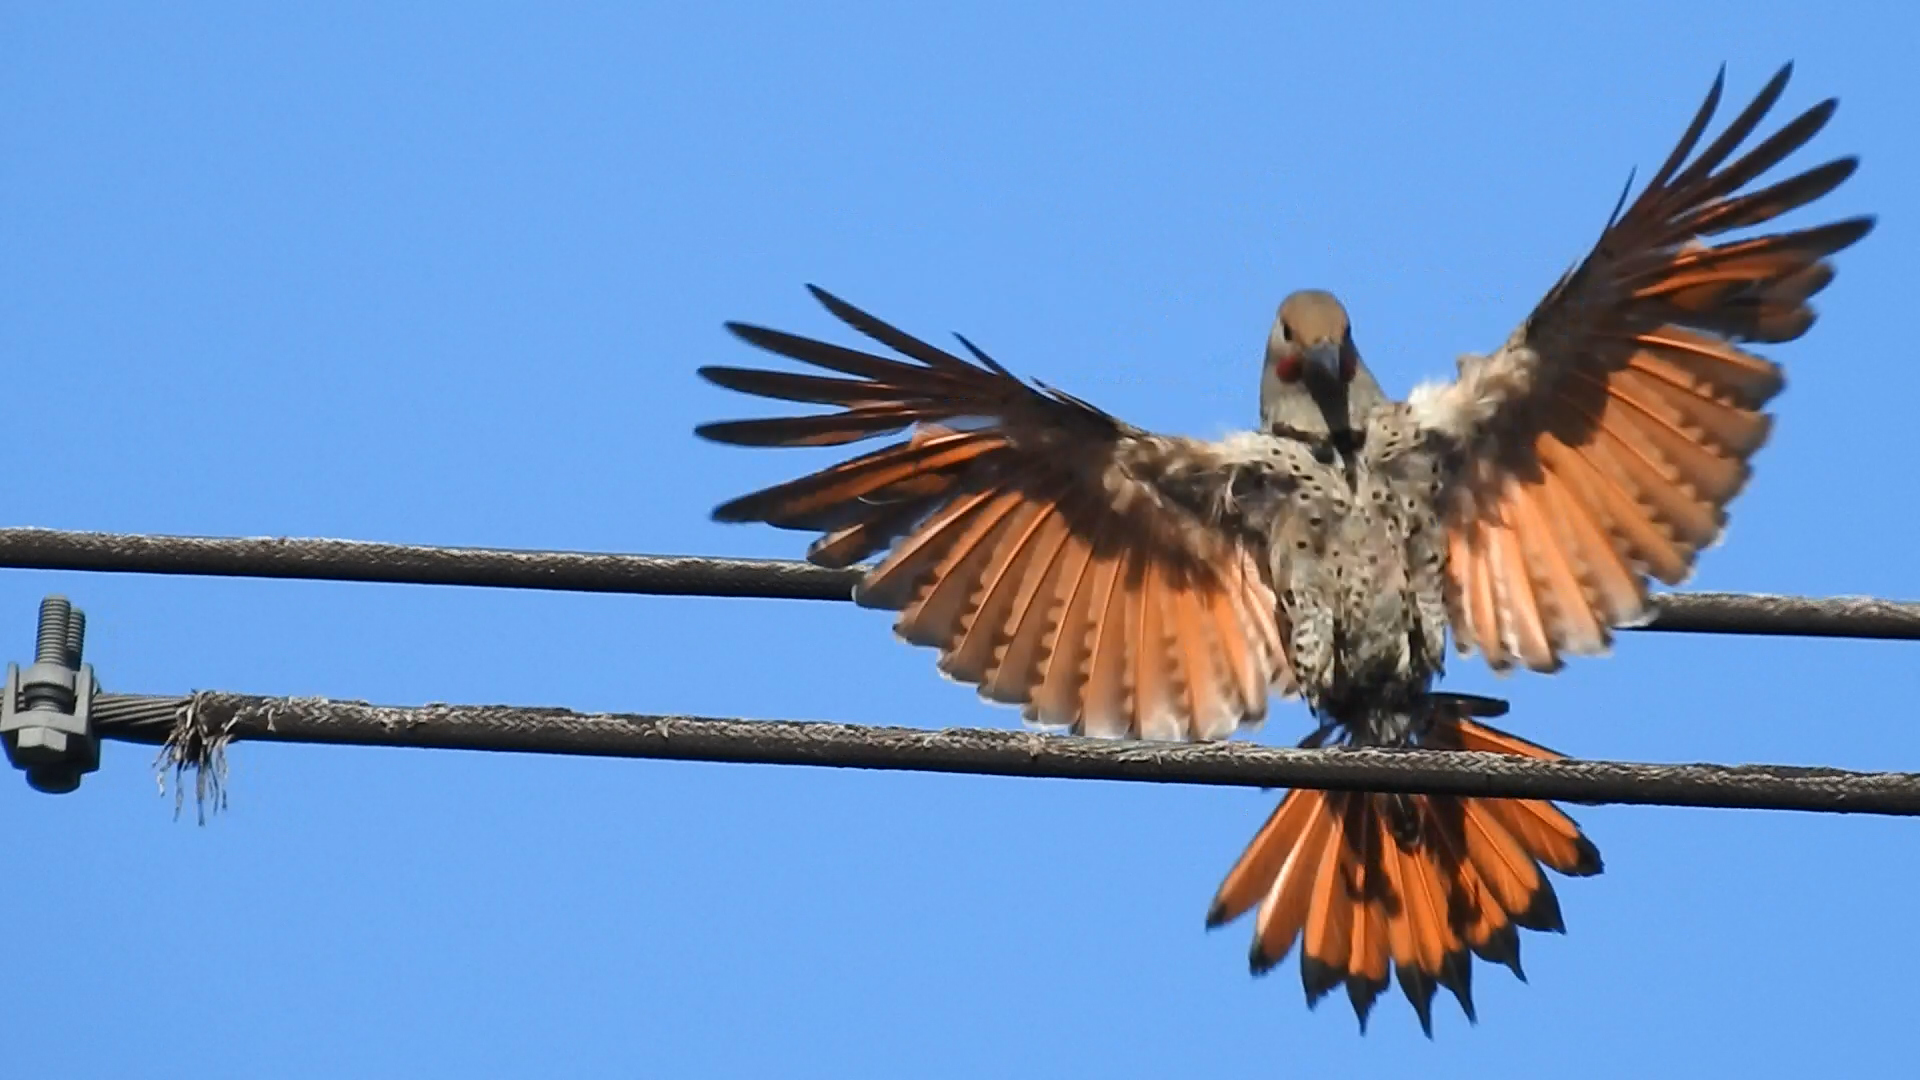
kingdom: Animalia
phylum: Chordata
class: Aves
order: Piciformes
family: Picidae
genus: Colaptes
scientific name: Colaptes auratus
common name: Northern flicker
